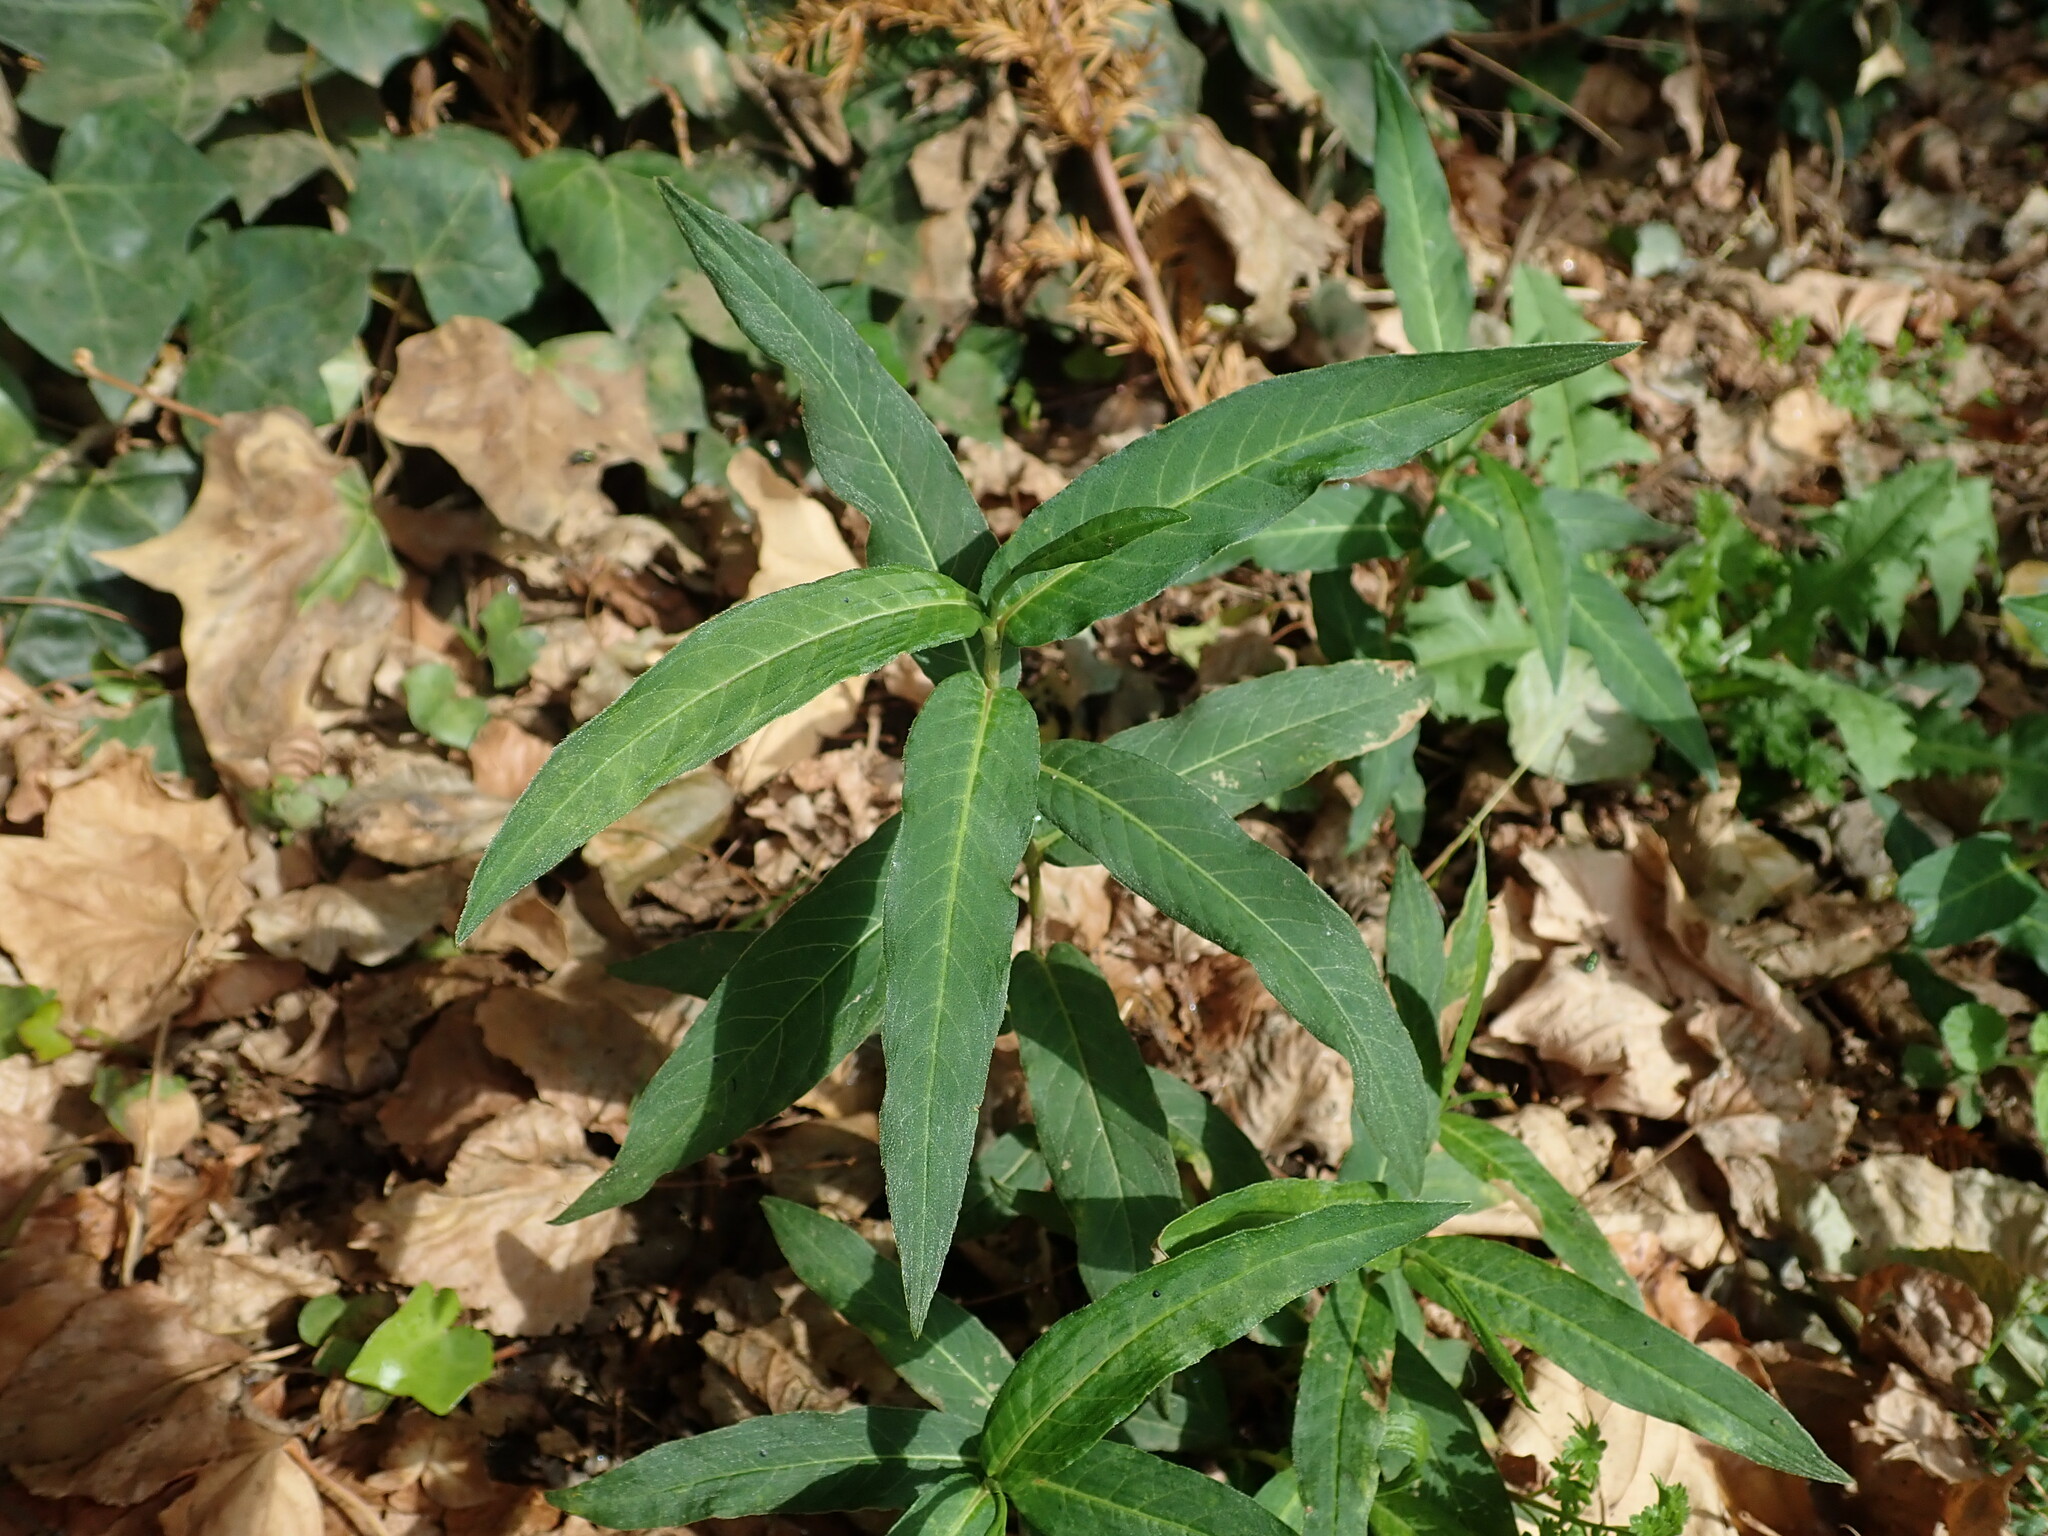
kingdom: Plantae
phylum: Tracheophyta
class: Magnoliopsida
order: Caryophyllales
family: Polygonaceae
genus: Persicaria
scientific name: Persicaria amphibia
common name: Amphibious bistort
